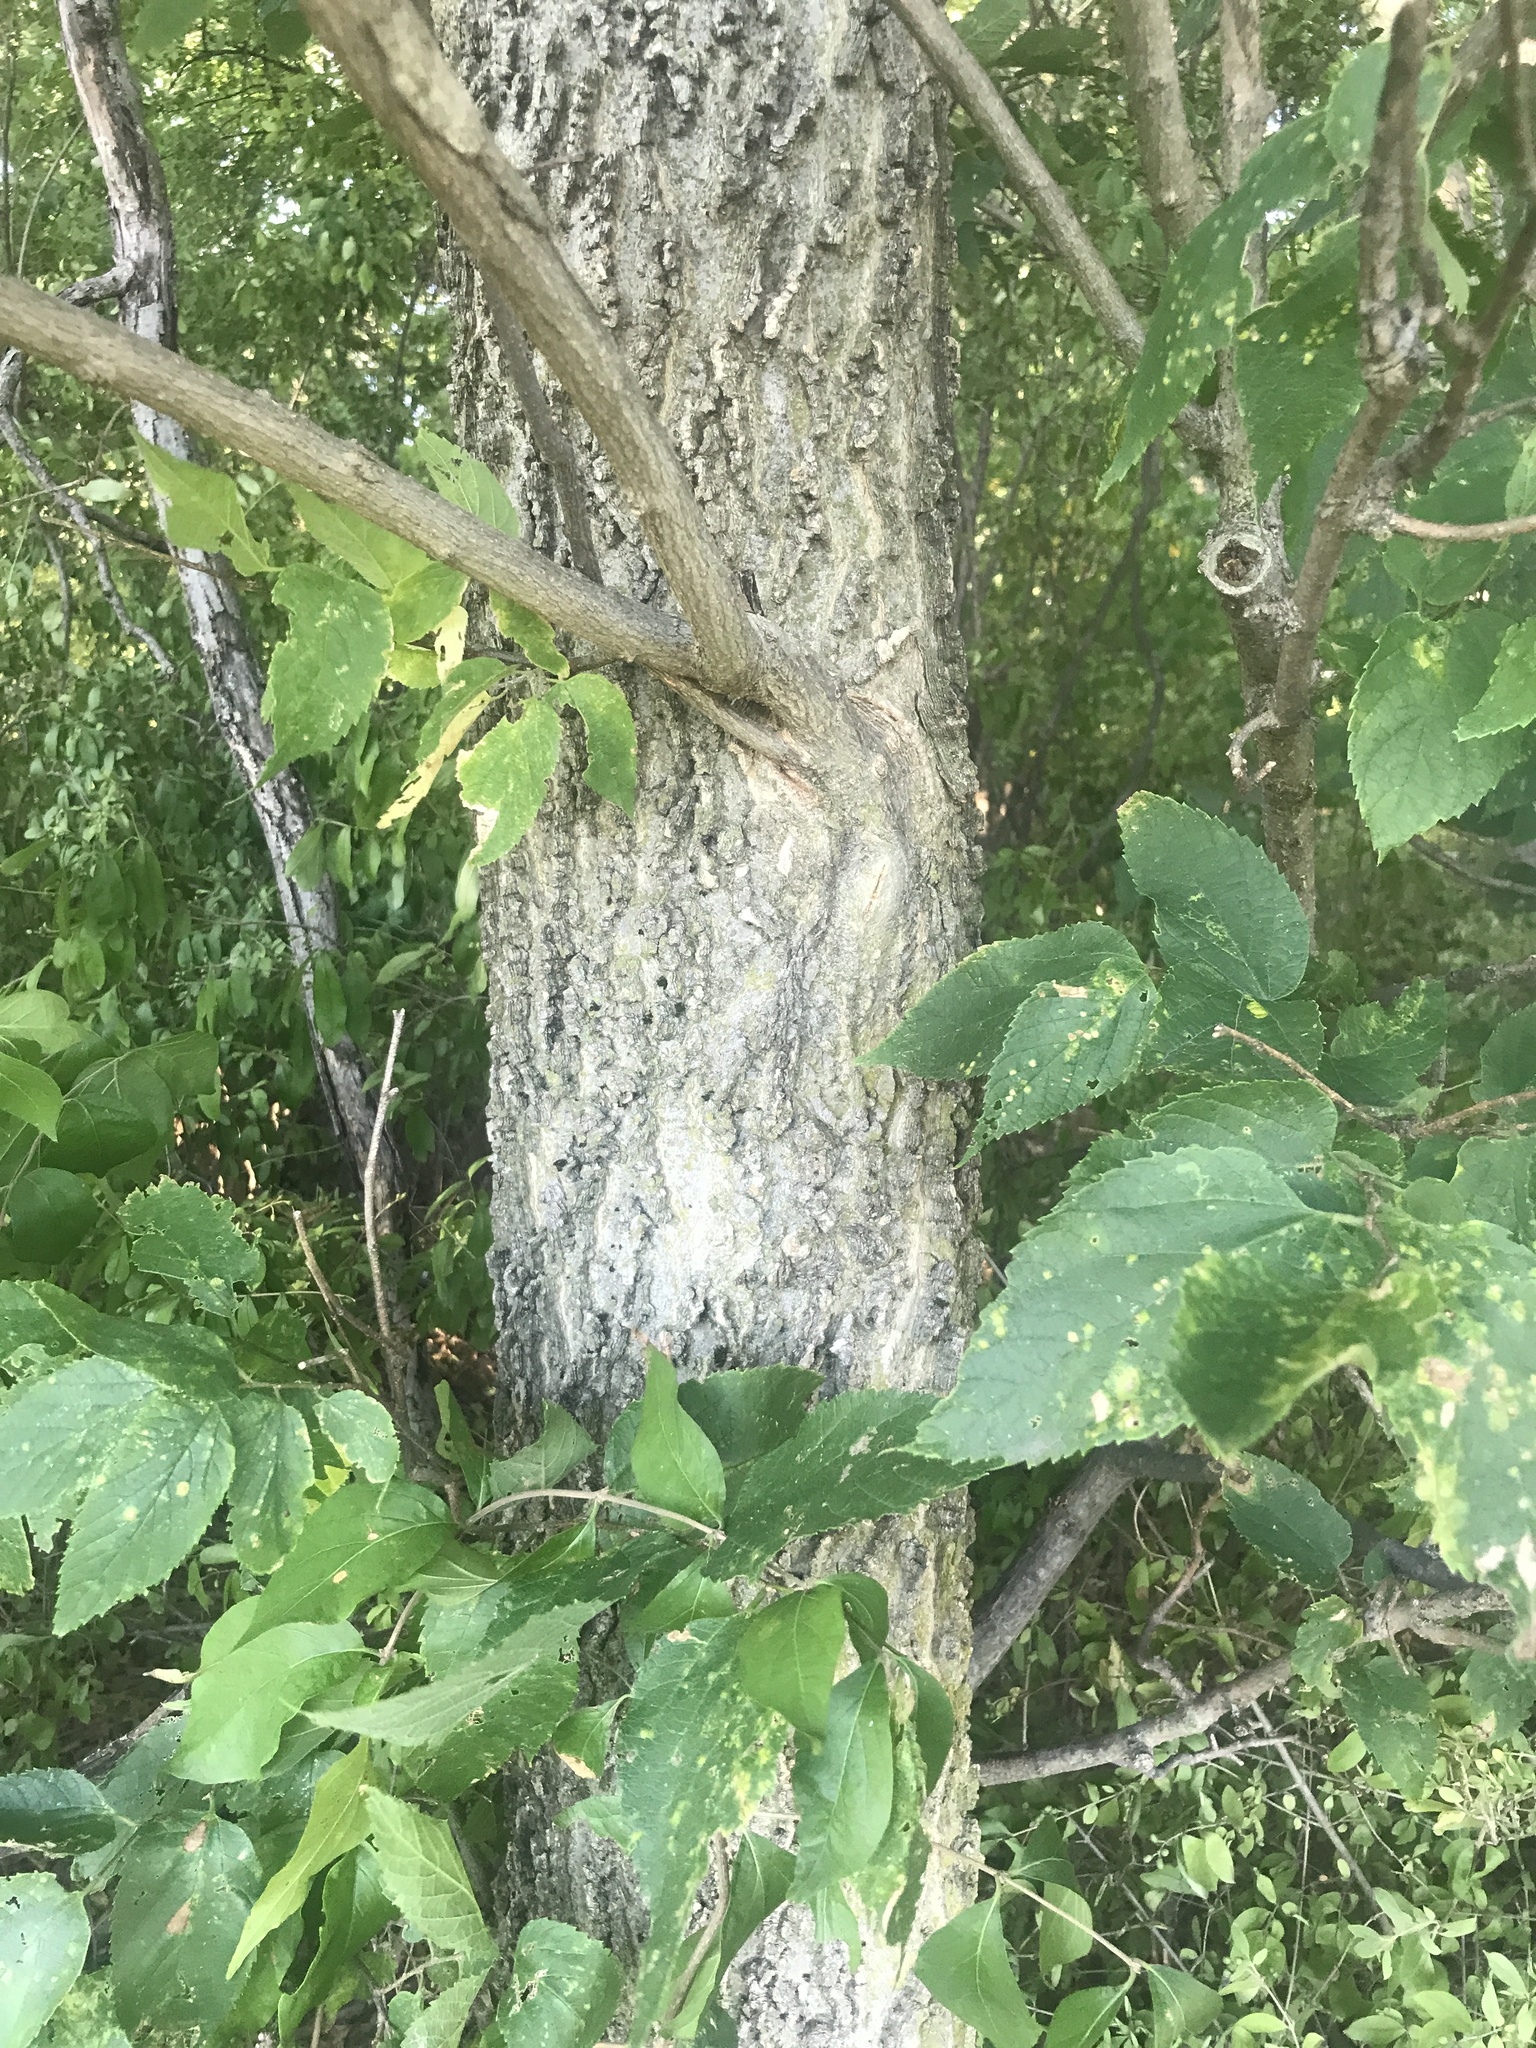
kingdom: Plantae
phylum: Tracheophyta
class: Magnoliopsida
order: Rosales
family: Cannabaceae
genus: Celtis
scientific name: Celtis occidentalis
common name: Common hackberry
